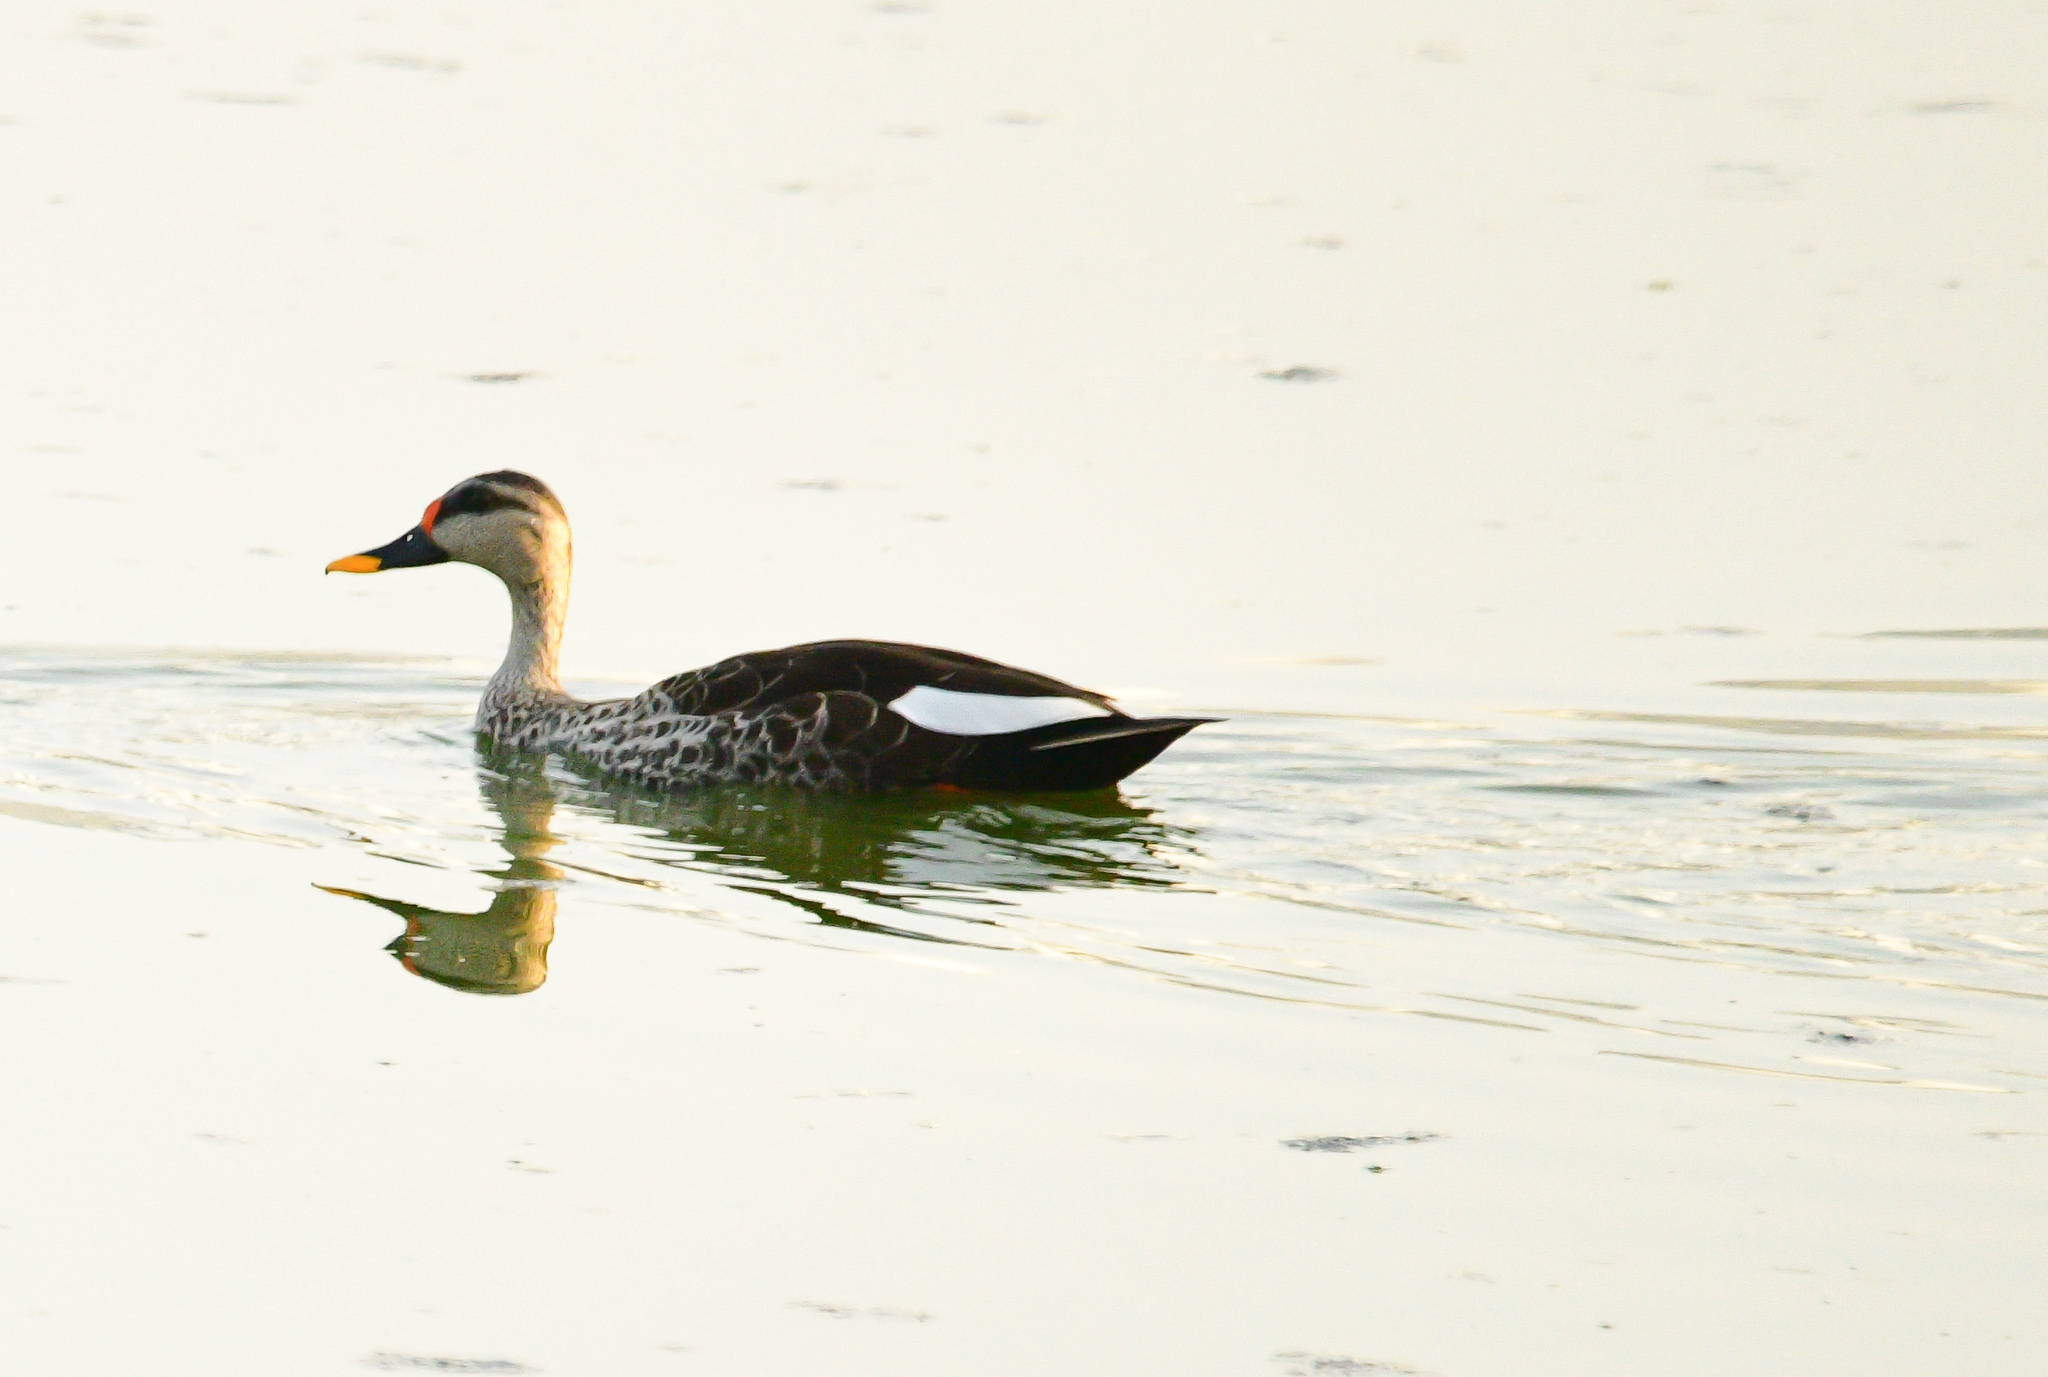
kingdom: Animalia
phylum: Chordata
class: Aves
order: Anseriformes
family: Anatidae
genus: Anas
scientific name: Anas poecilorhyncha
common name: Indian spot-billed duck
